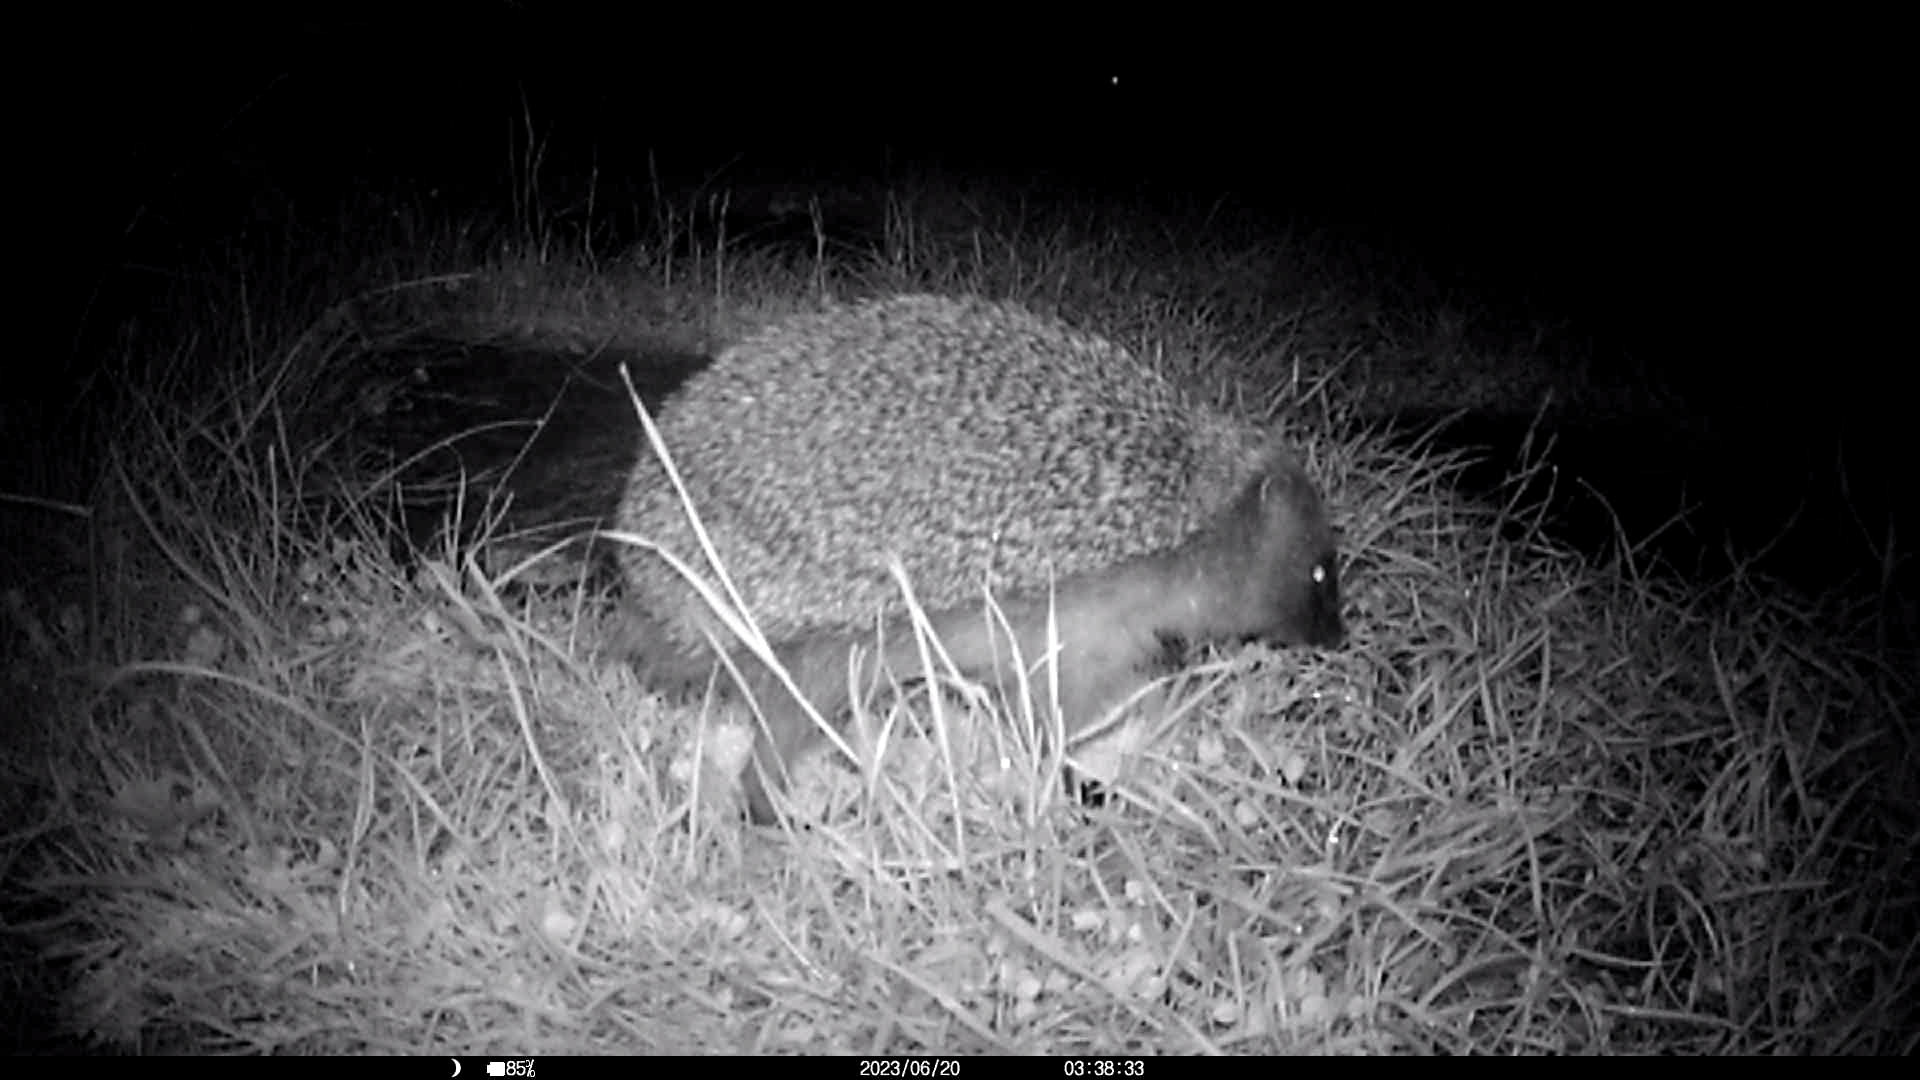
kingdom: Animalia
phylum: Chordata
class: Mammalia
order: Erinaceomorpha
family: Erinaceidae
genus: Erinaceus
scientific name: Erinaceus europaeus
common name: West european hedgehog
